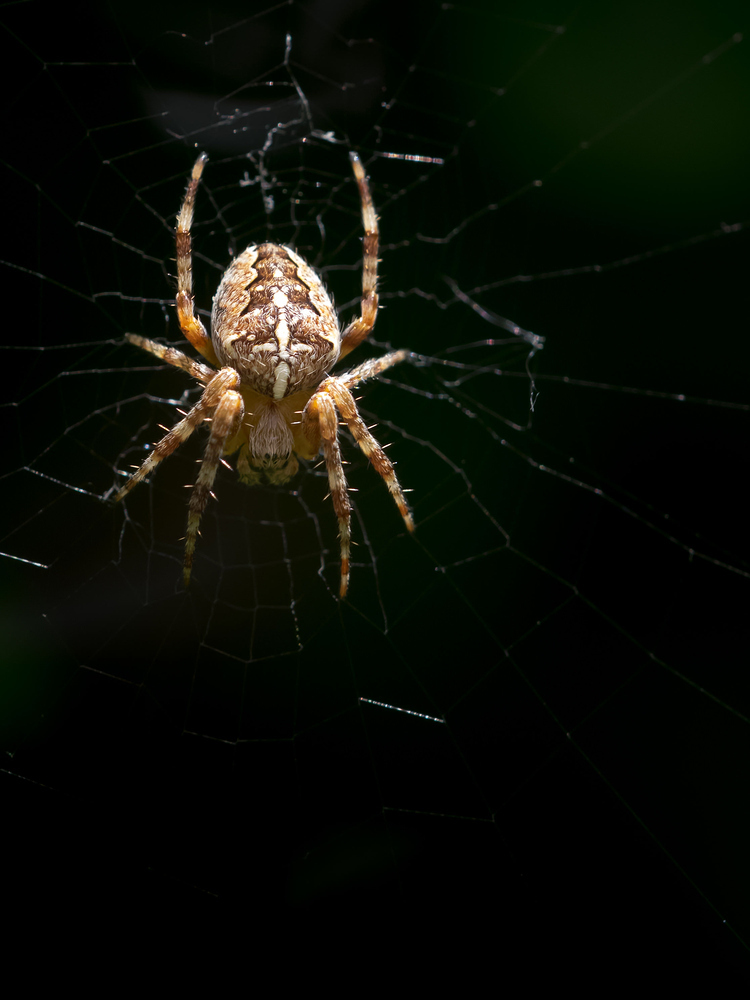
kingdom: Animalia
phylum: Arthropoda
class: Arachnida
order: Araneae
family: Araneidae
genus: Araneus
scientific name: Araneus diadematus
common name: Cross orbweaver
